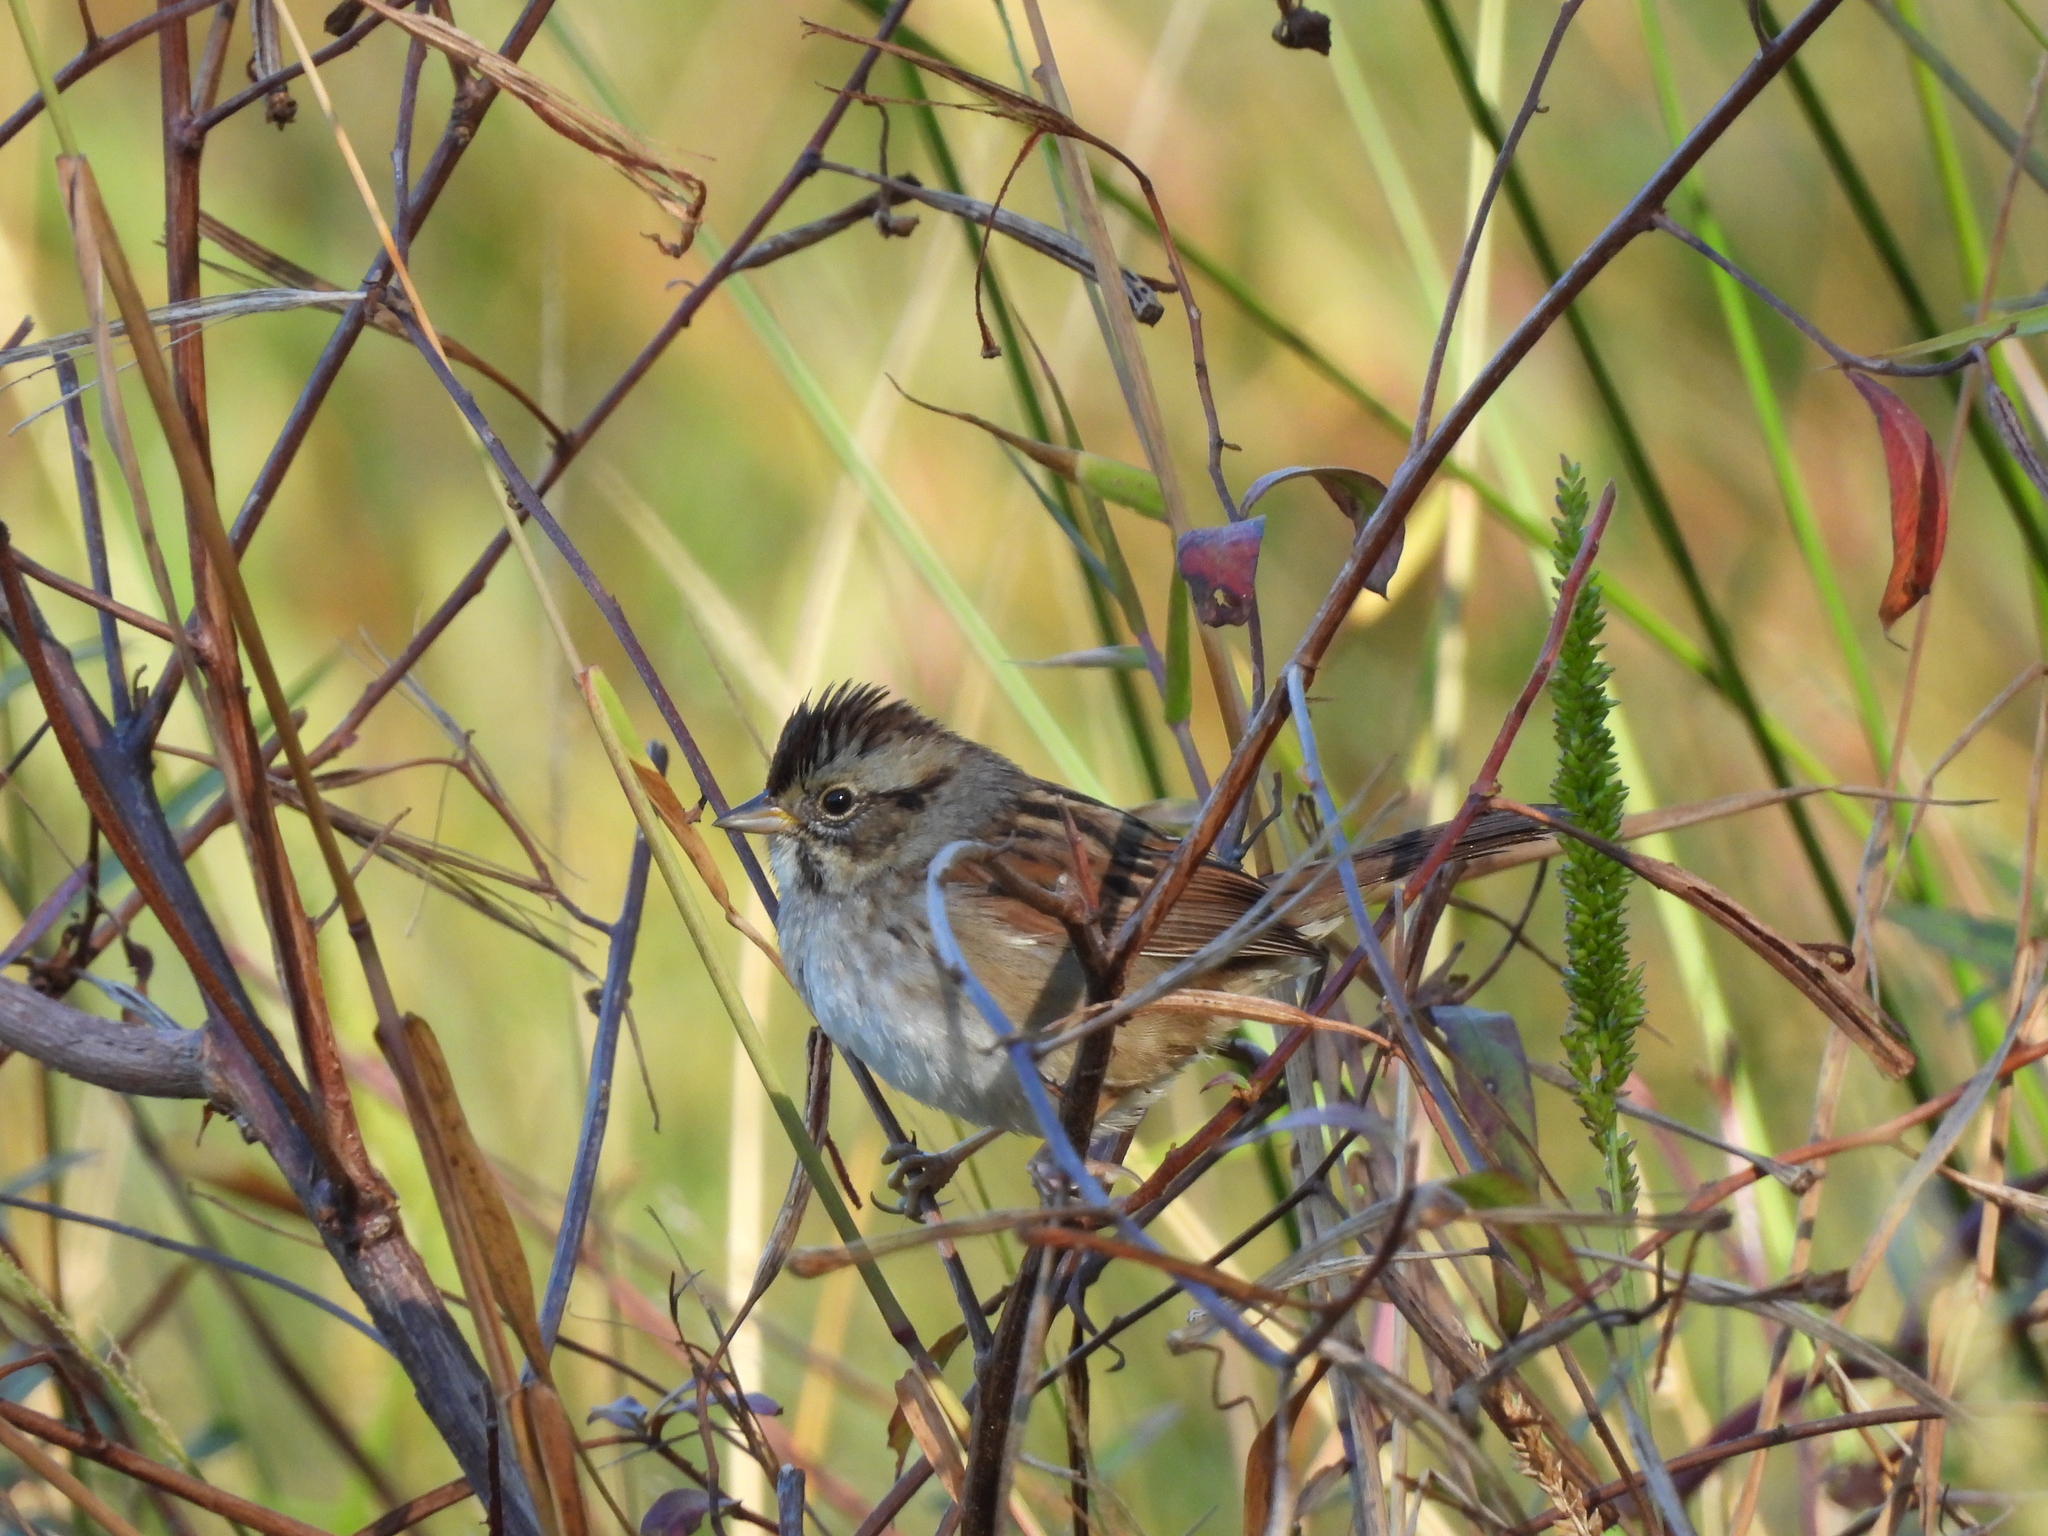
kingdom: Animalia
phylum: Chordata
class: Aves
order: Passeriformes
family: Passerellidae
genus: Melospiza
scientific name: Melospiza georgiana
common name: Swamp sparrow
